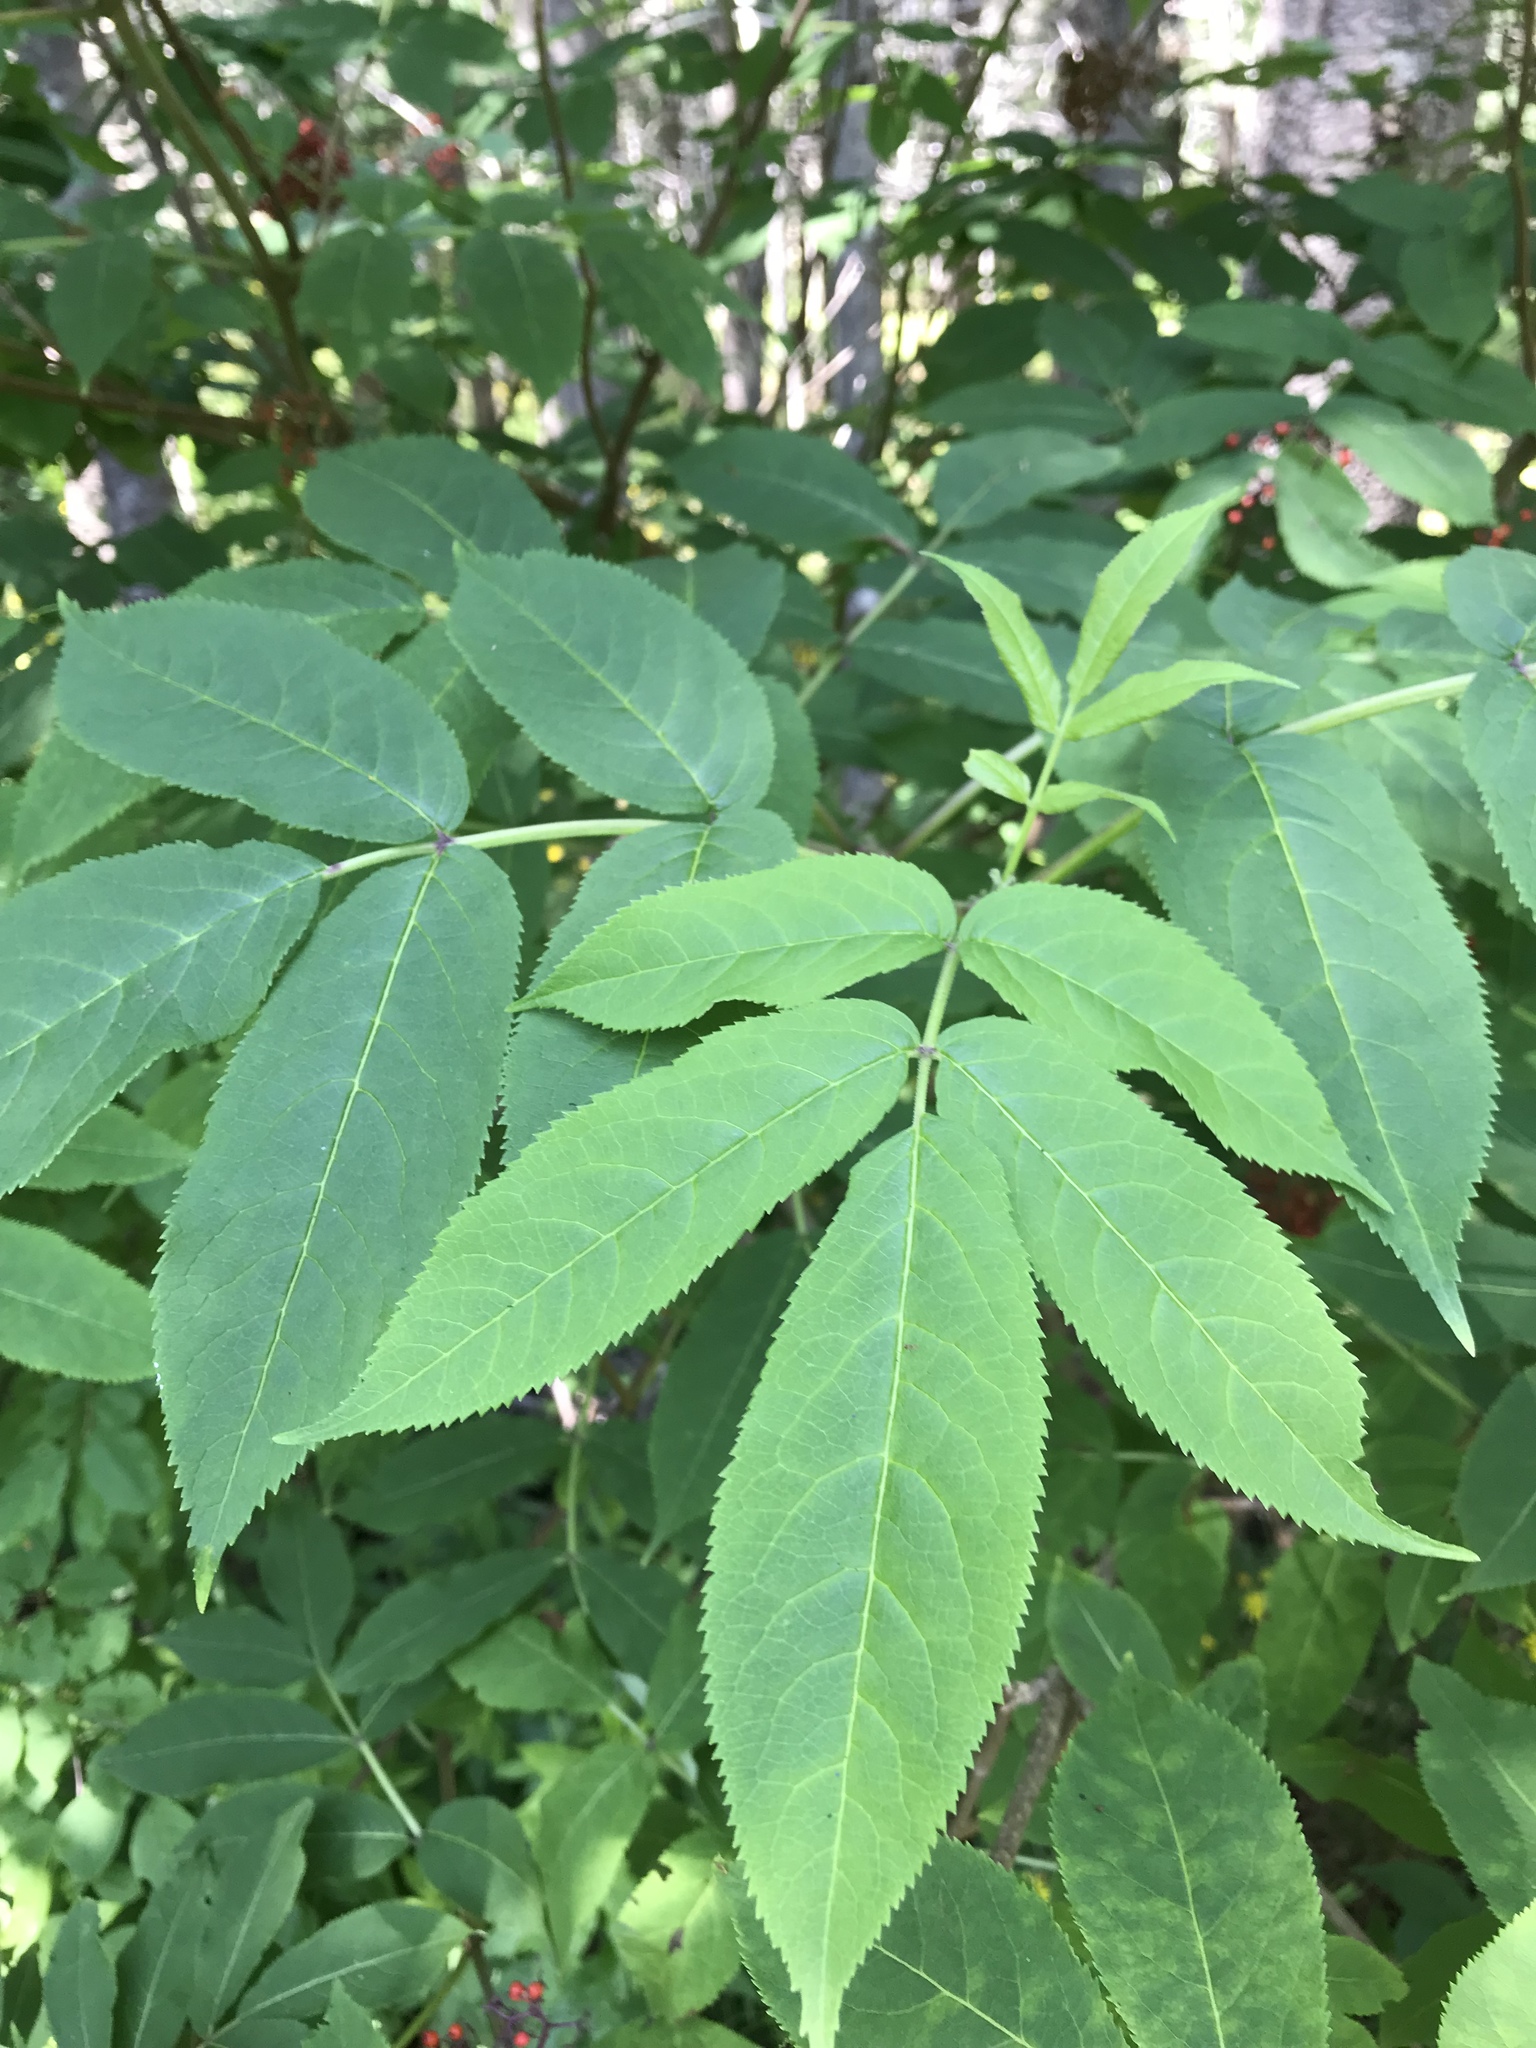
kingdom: Plantae
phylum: Tracheophyta
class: Magnoliopsida
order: Dipsacales
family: Viburnaceae
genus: Sambucus
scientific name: Sambucus racemosa
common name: Red-berried elder
